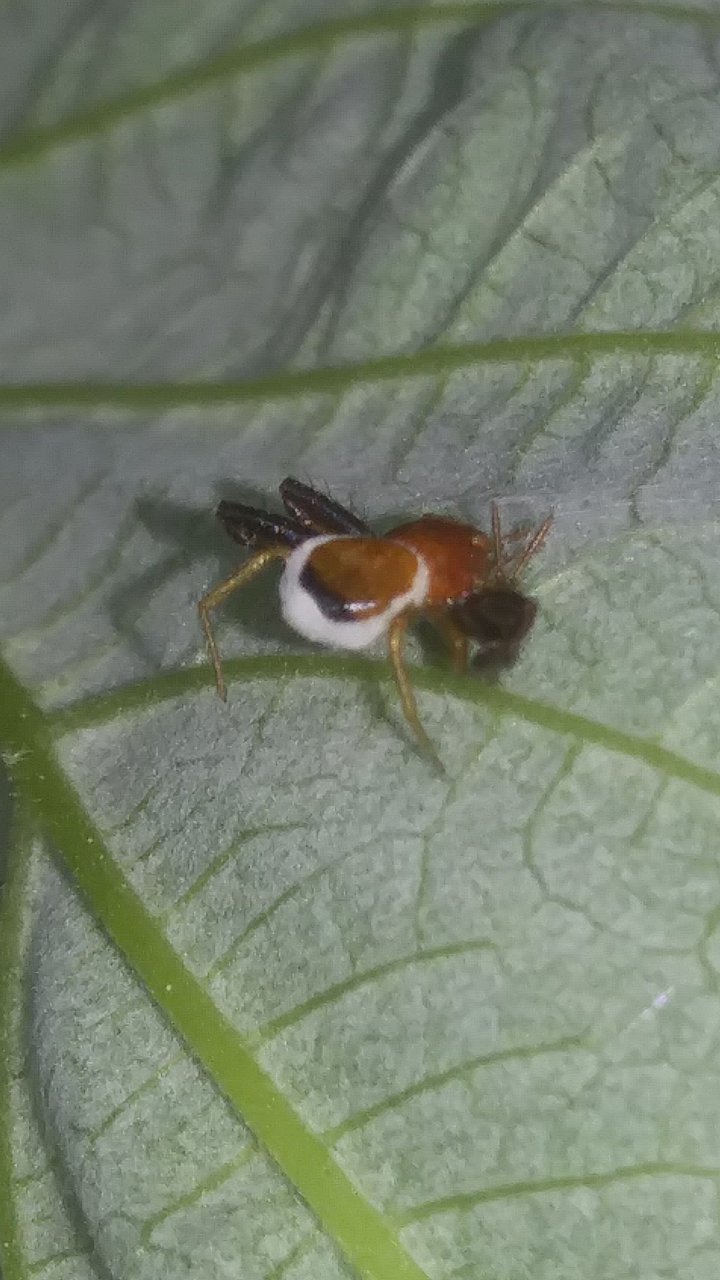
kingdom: Animalia
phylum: Arthropoda
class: Arachnida
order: Araneae
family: Thomisidae
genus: Synema
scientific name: Synema parvulum
